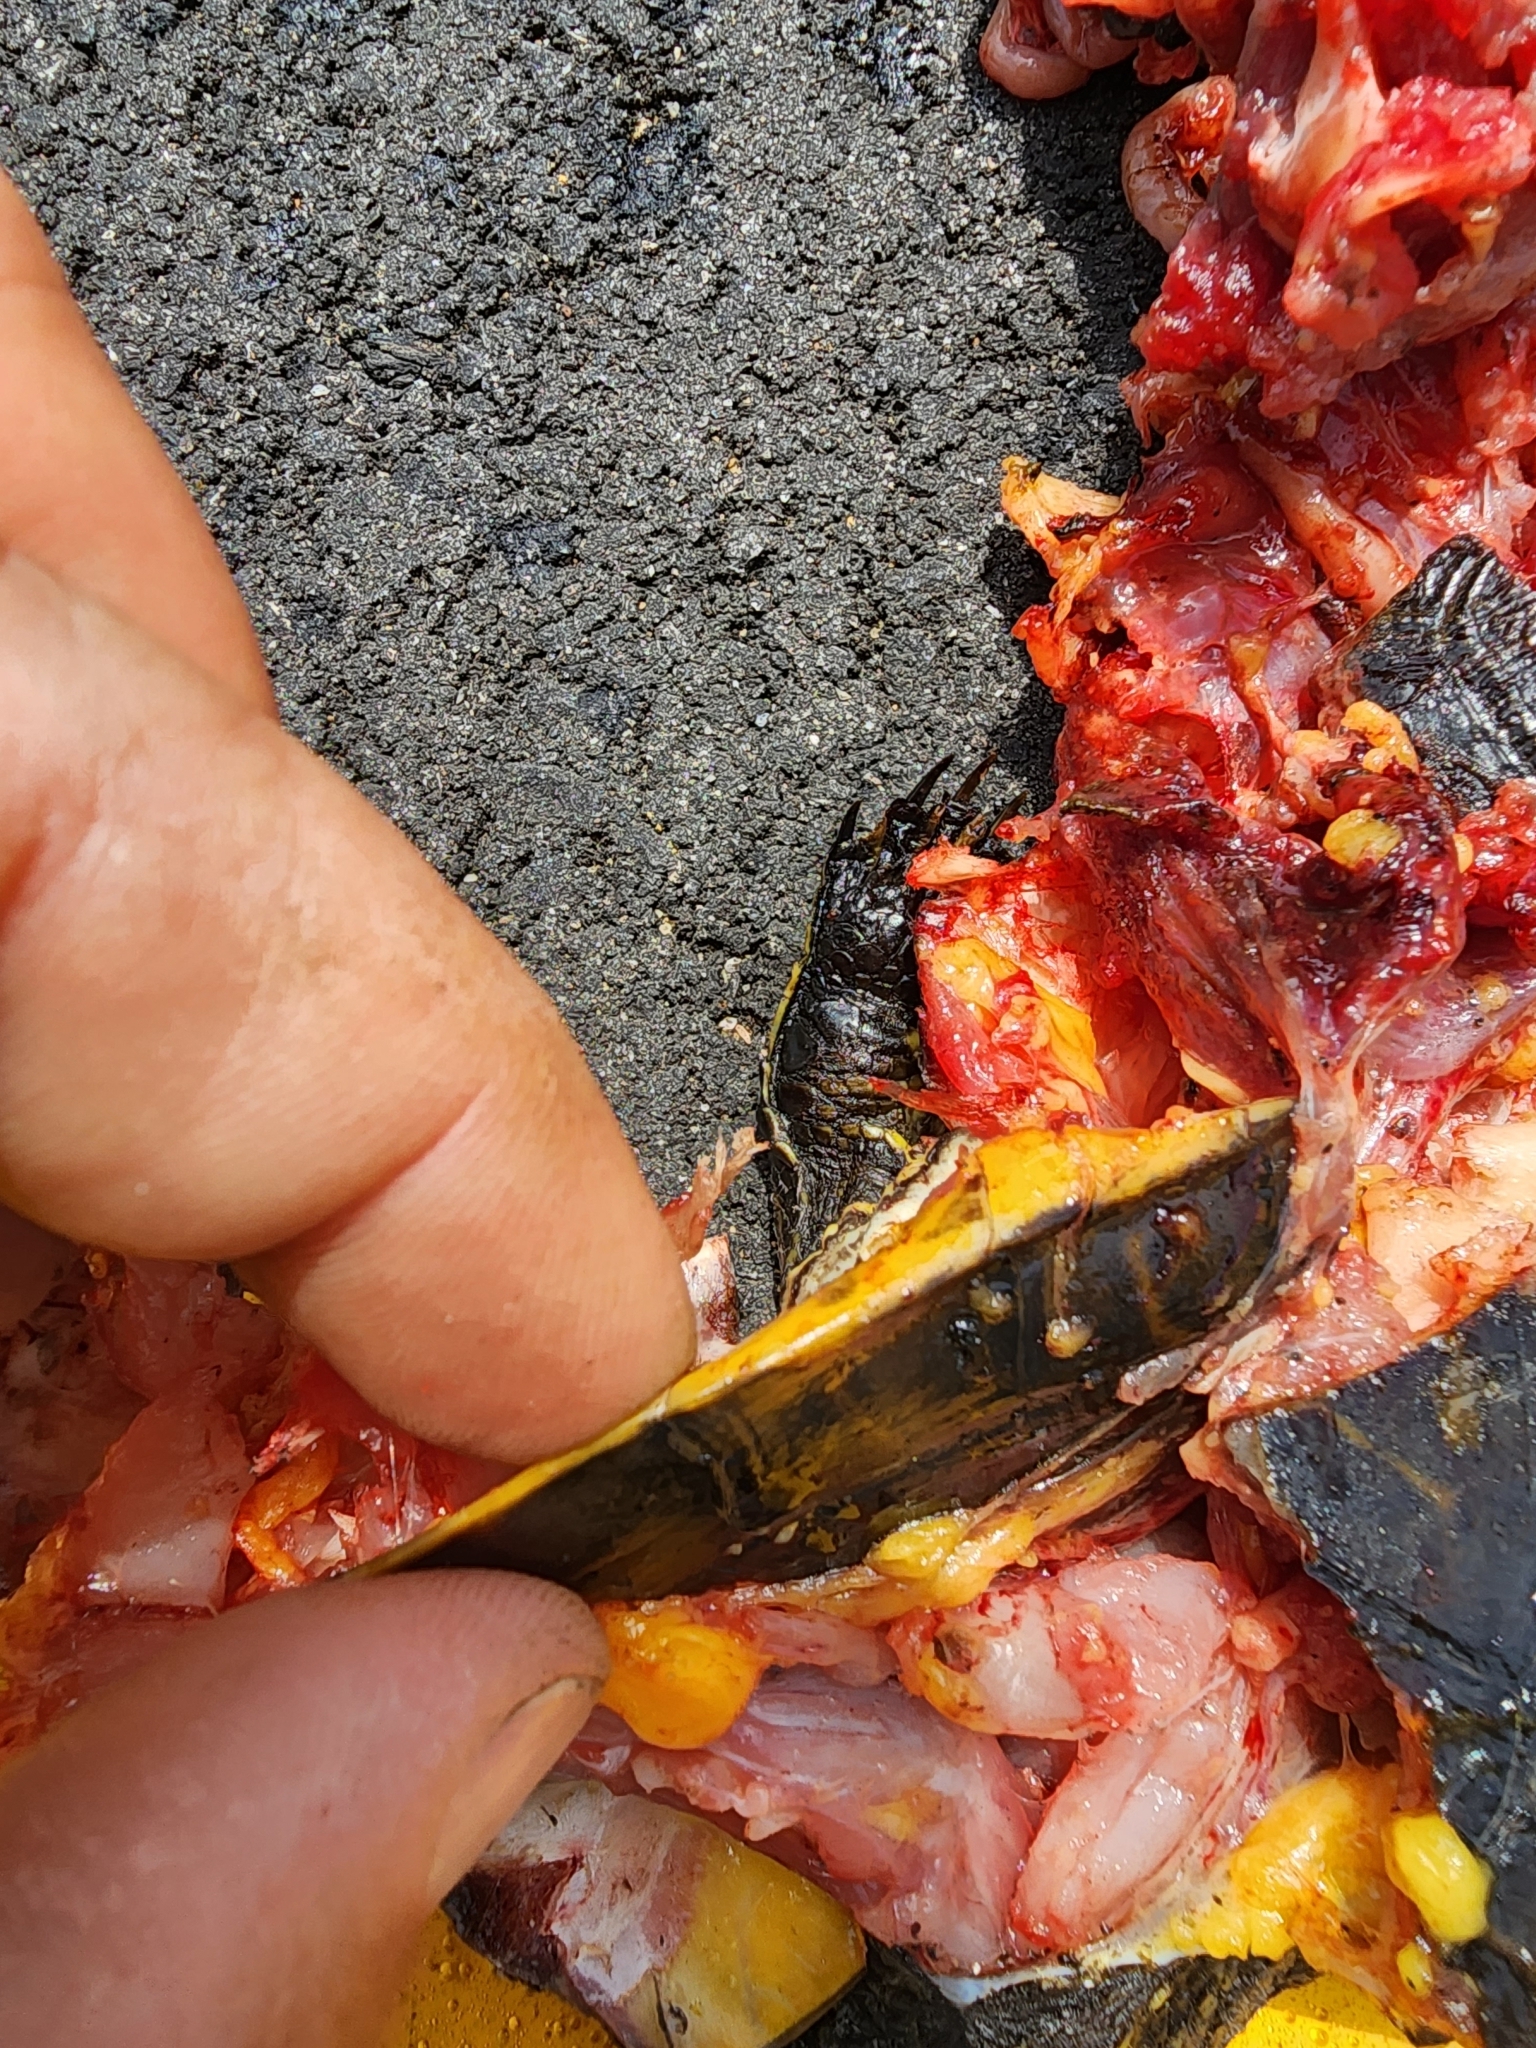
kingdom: Animalia
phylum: Chordata
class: Testudines
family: Emydidae
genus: Deirochelys
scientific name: Deirochelys reticularia
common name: Chicken turtle
